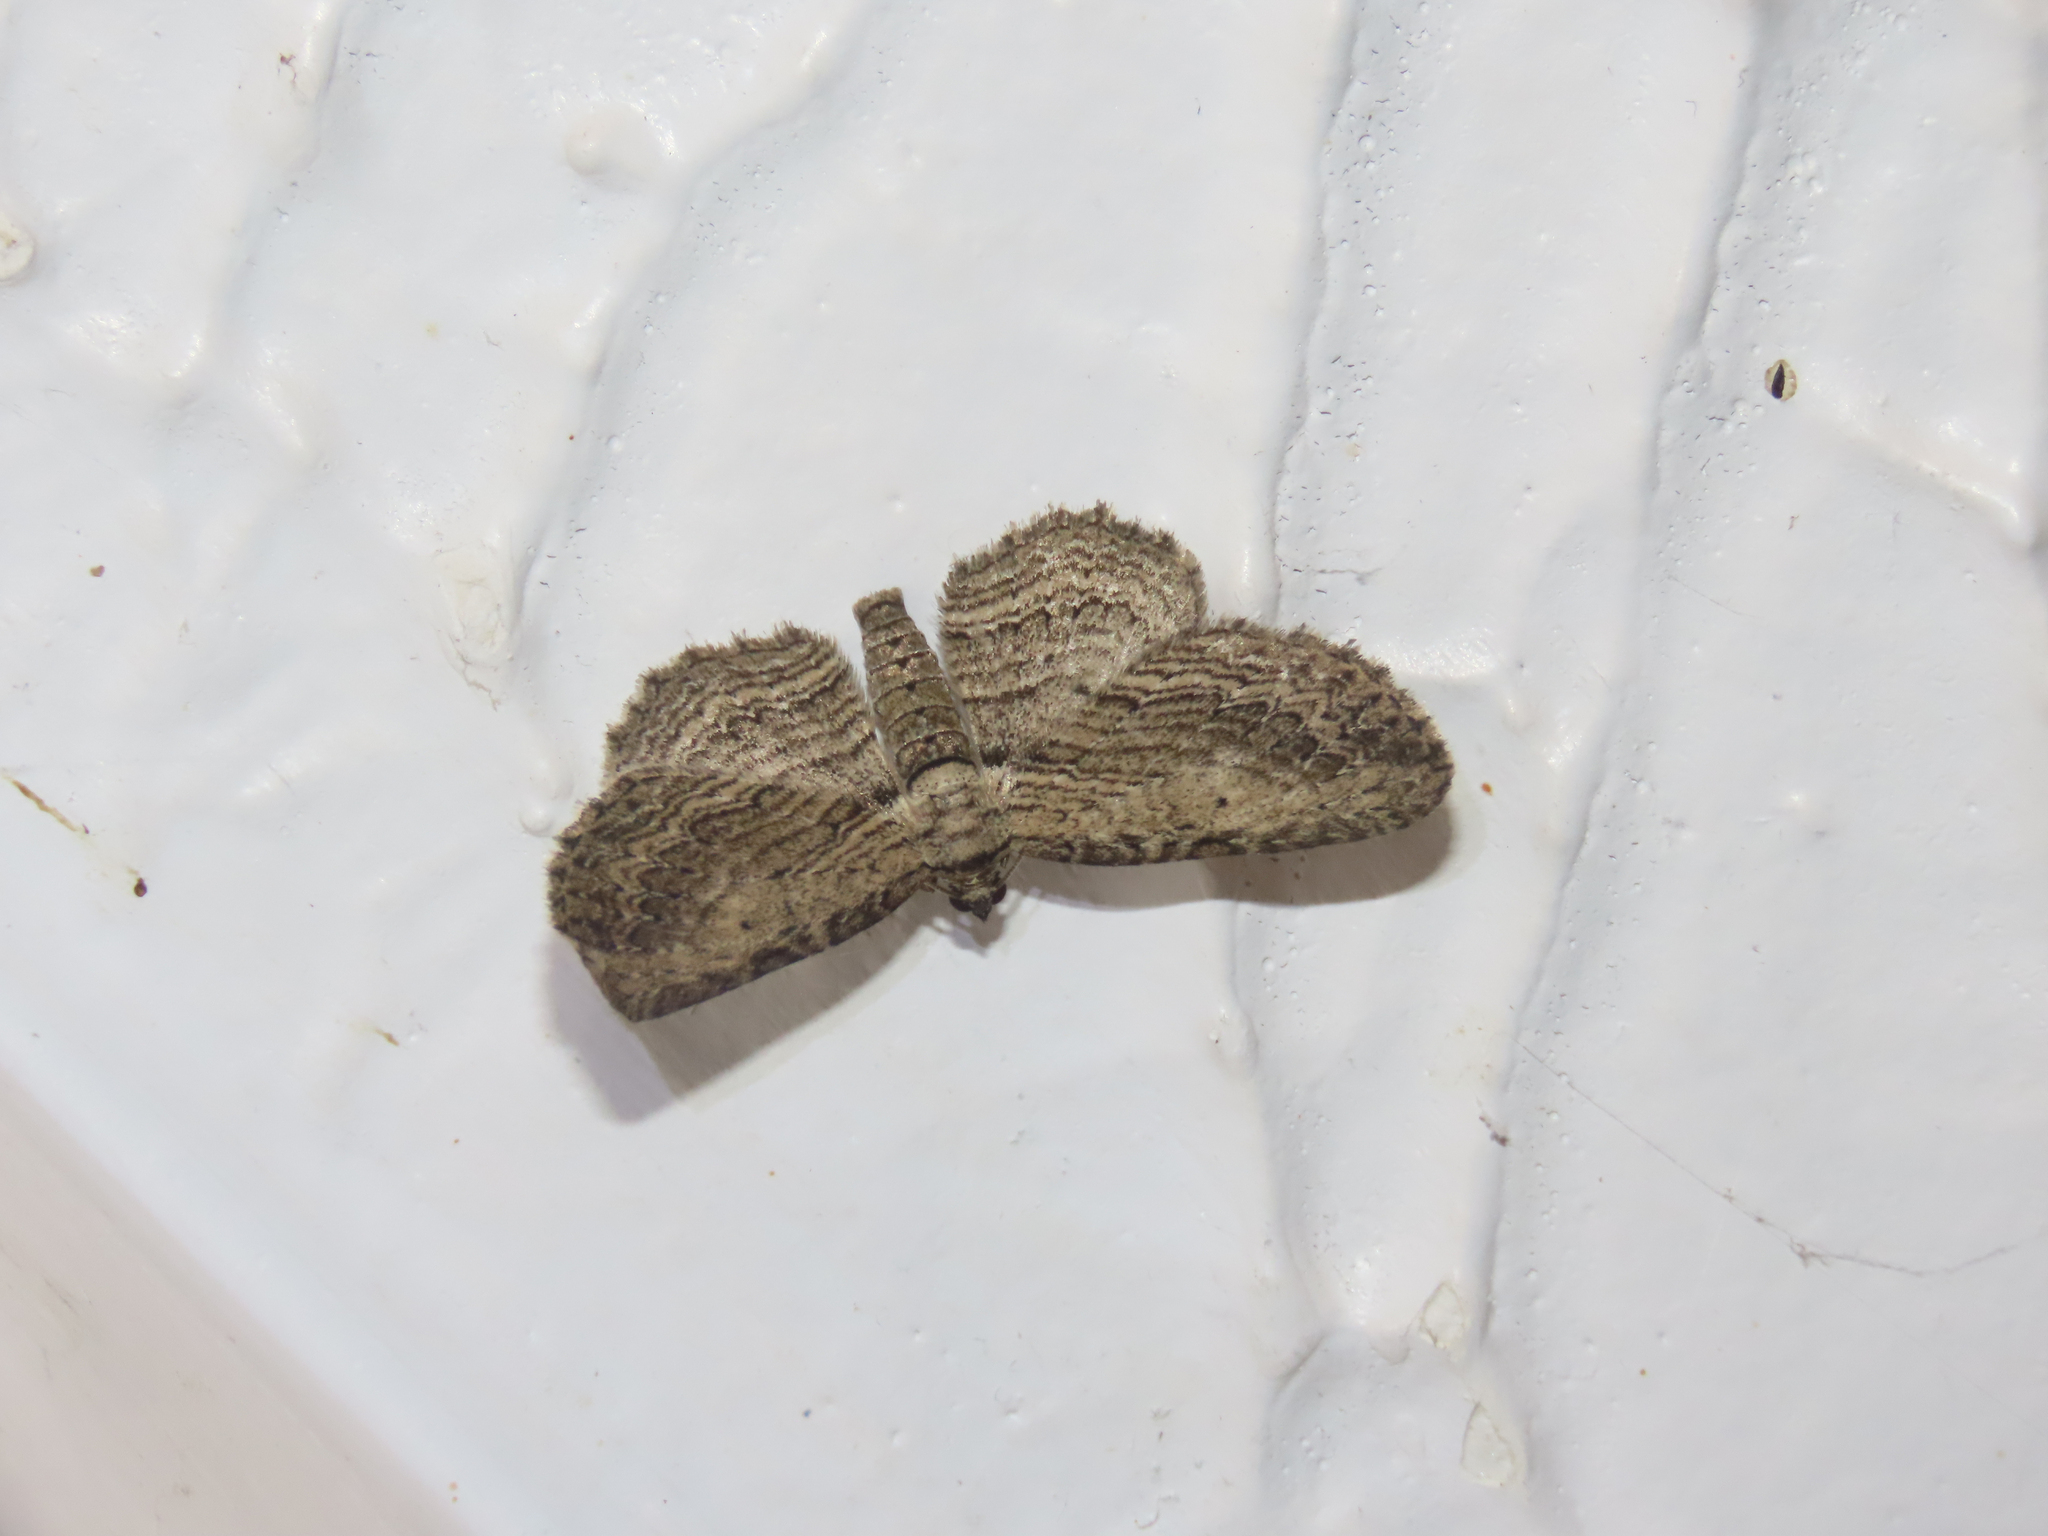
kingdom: Animalia
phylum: Arthropoda
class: Insecta
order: Lepidoptera
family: Geometridae
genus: Horisme
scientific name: Horisme intestinata
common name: Brown bark carpet
